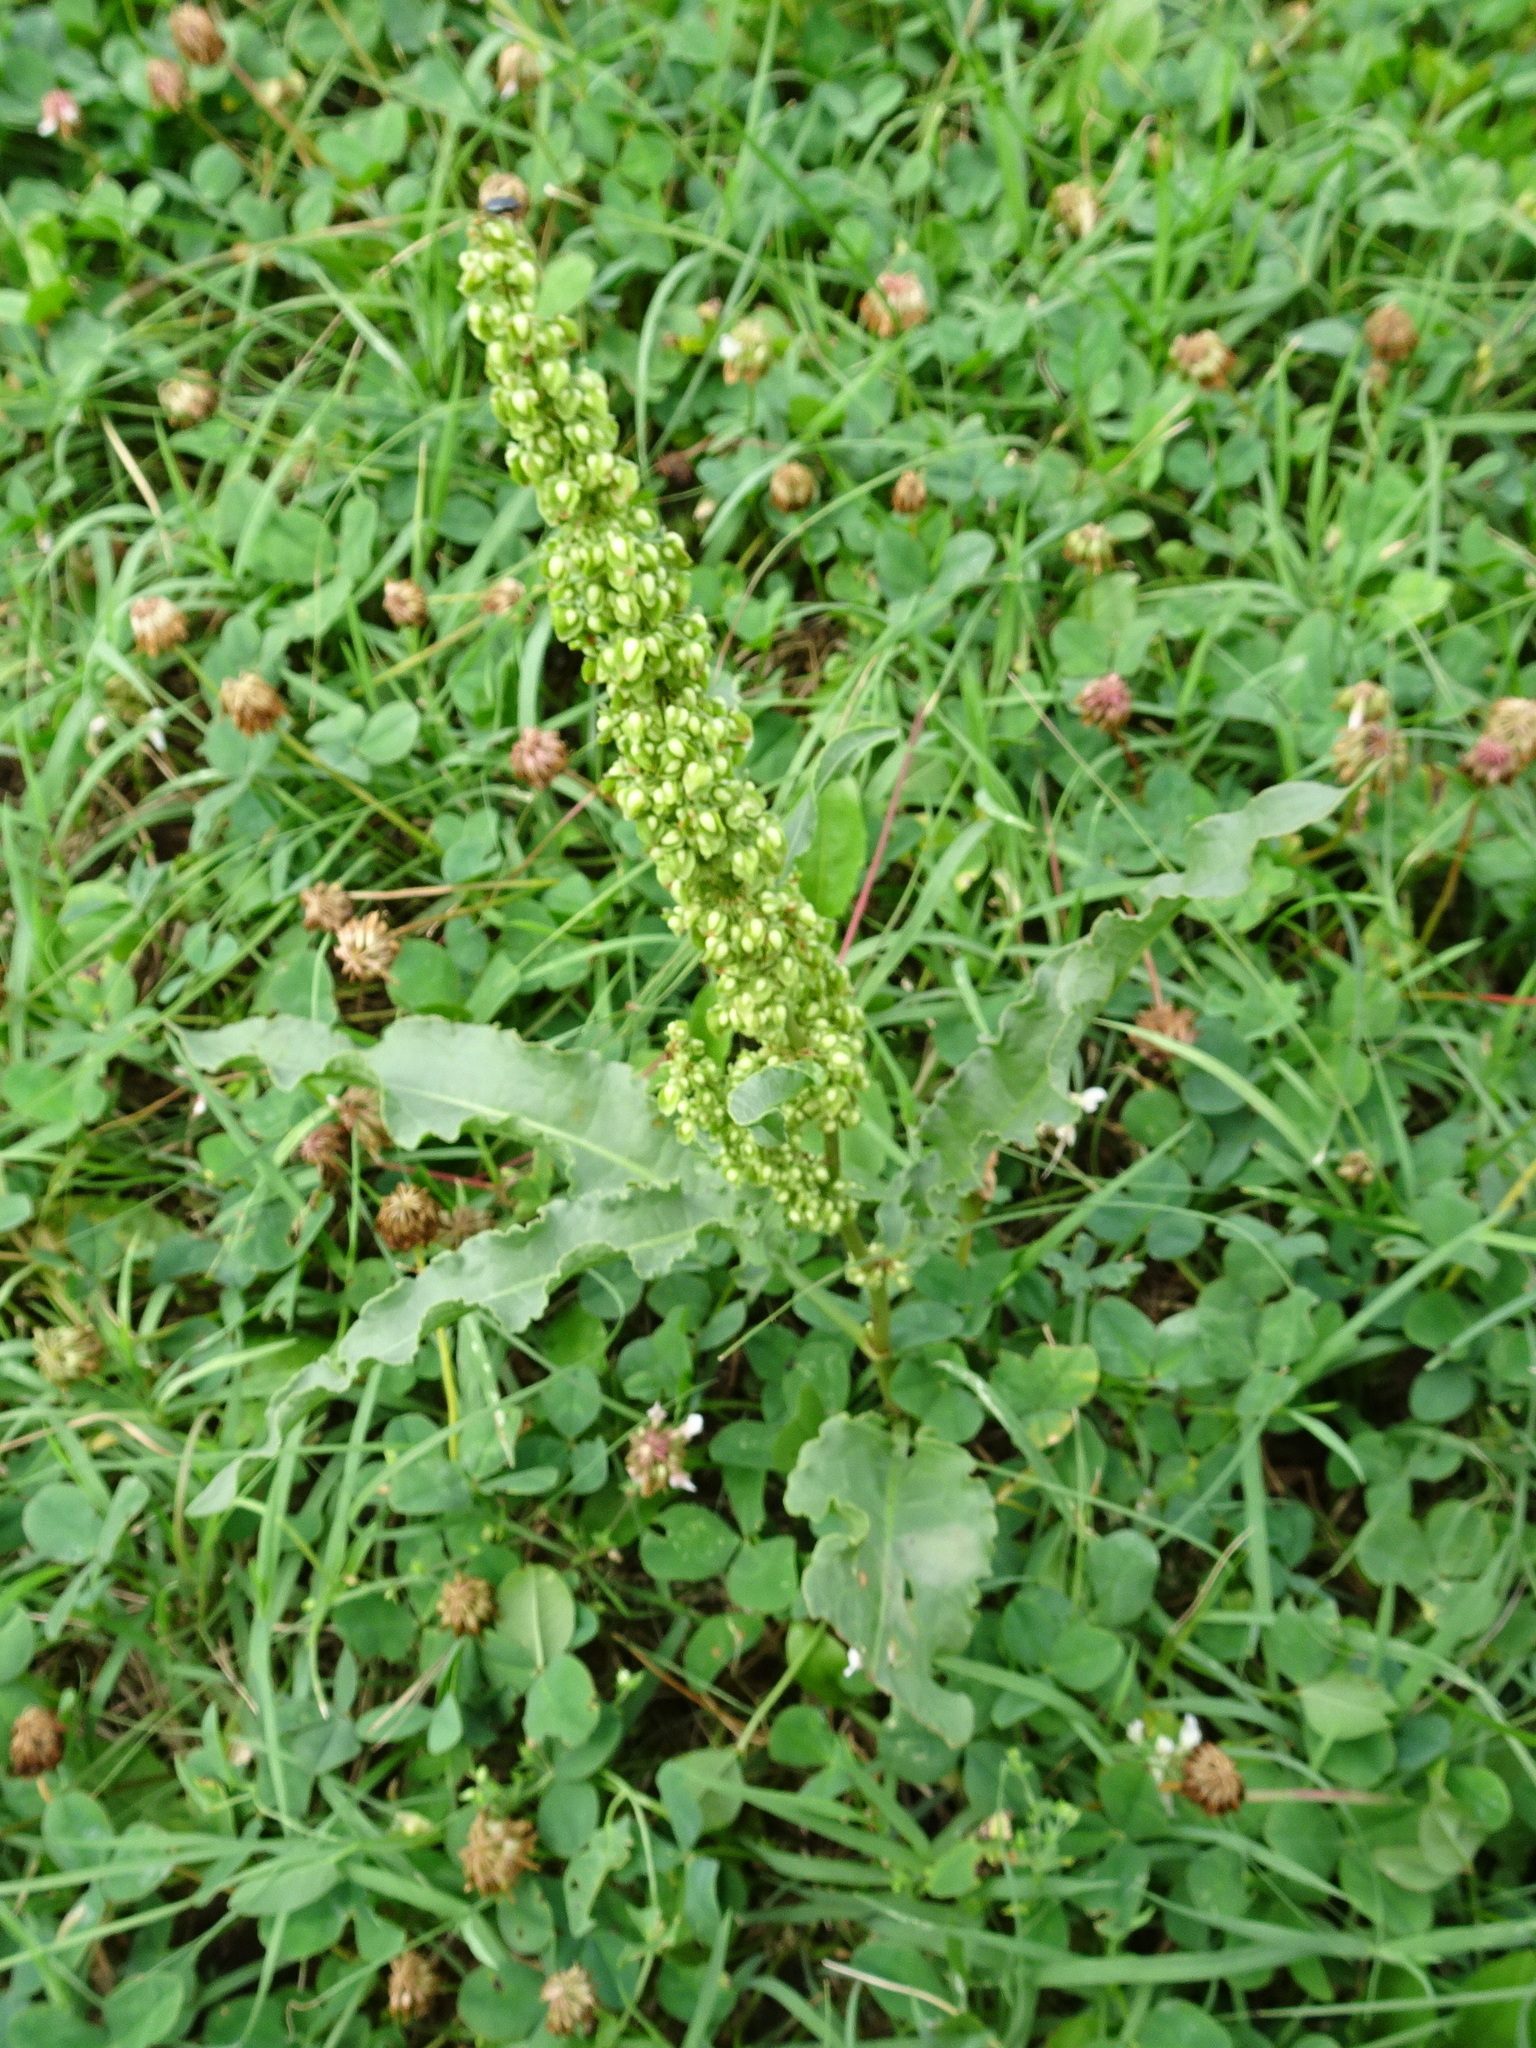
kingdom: Plantae
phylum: Tracheophyta
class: Magnoliopsida
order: Caryophyllales
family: Polygonaceae
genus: Rumex
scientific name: Rumex crispus
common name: Curled dock
